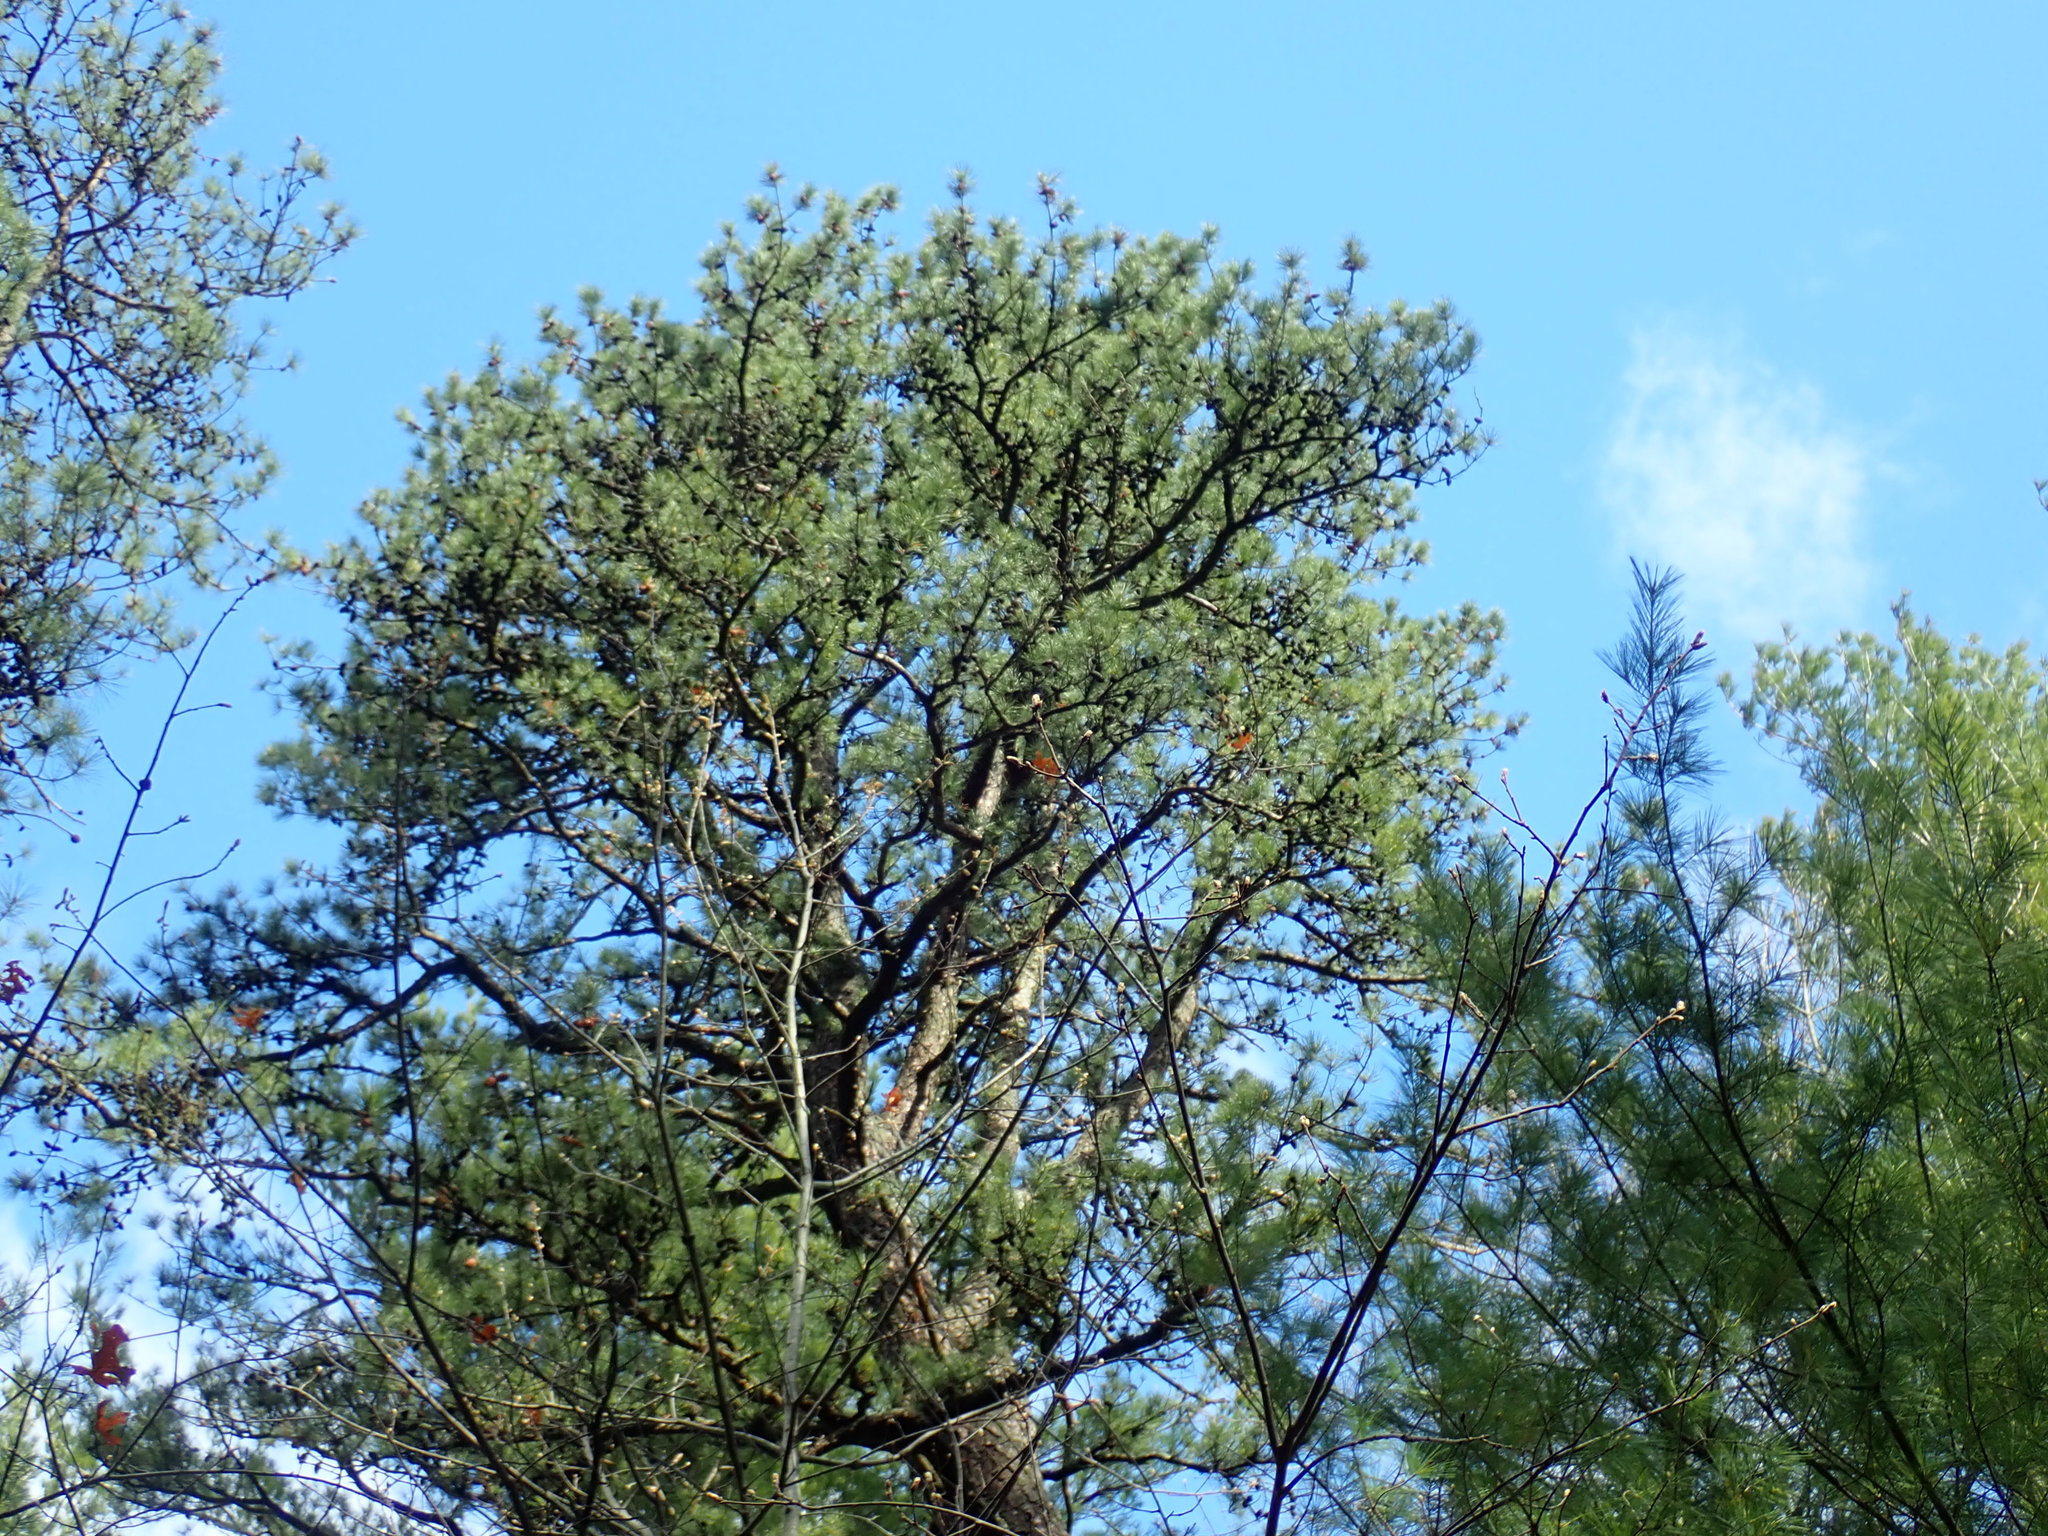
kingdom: Plantae
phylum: Tracheophyta
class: Pinopsida
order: Pinales
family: Pinaceae
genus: Pinus
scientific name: Pinus rigida
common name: Pitch pine
